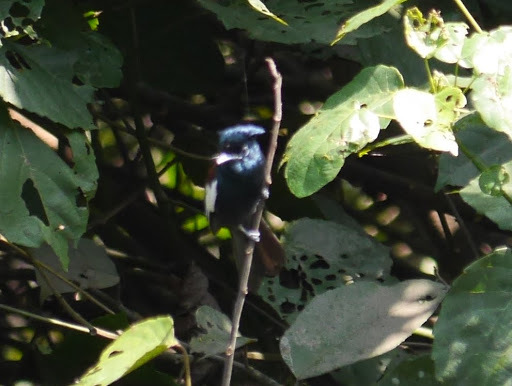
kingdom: Animalia
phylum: Chordata
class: Aves
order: Passeriformes
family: Monarchidae
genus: Terpsiphone
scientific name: Terpsiphone viridis
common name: African paradise flycatcher
